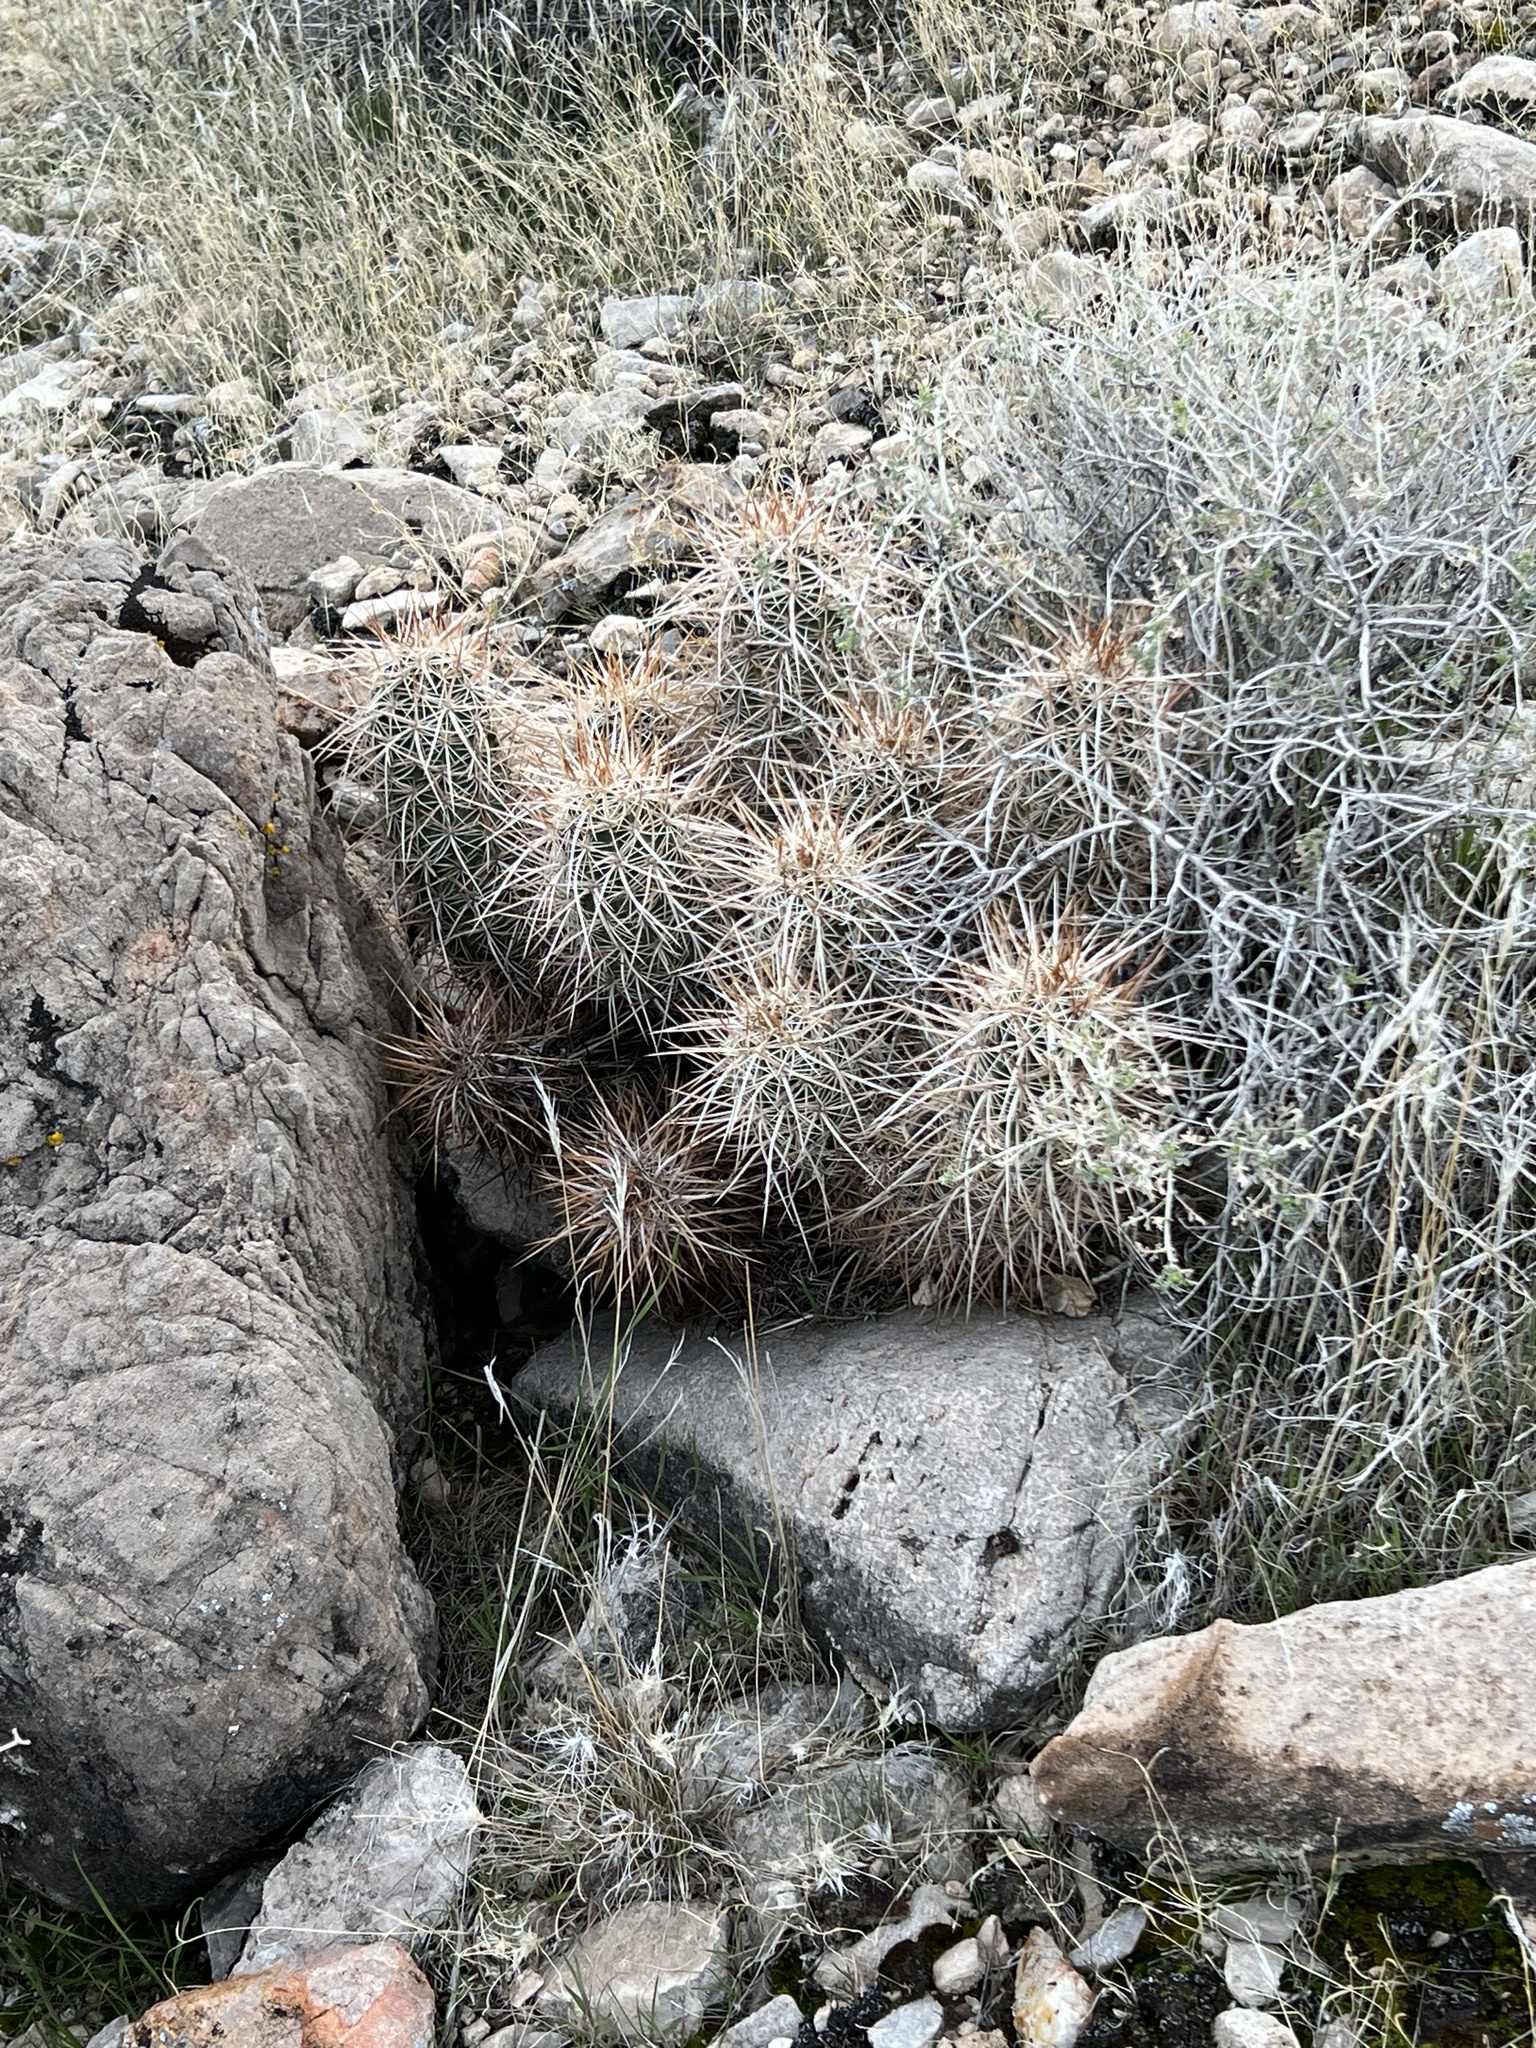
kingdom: Plantae
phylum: Tracheophyta
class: Magnoliopsida
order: Caryophyllales
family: Cactaceae
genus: Echinocereus
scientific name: Echinocereus engelmannii
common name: Engelmann's hedgehog cactus
